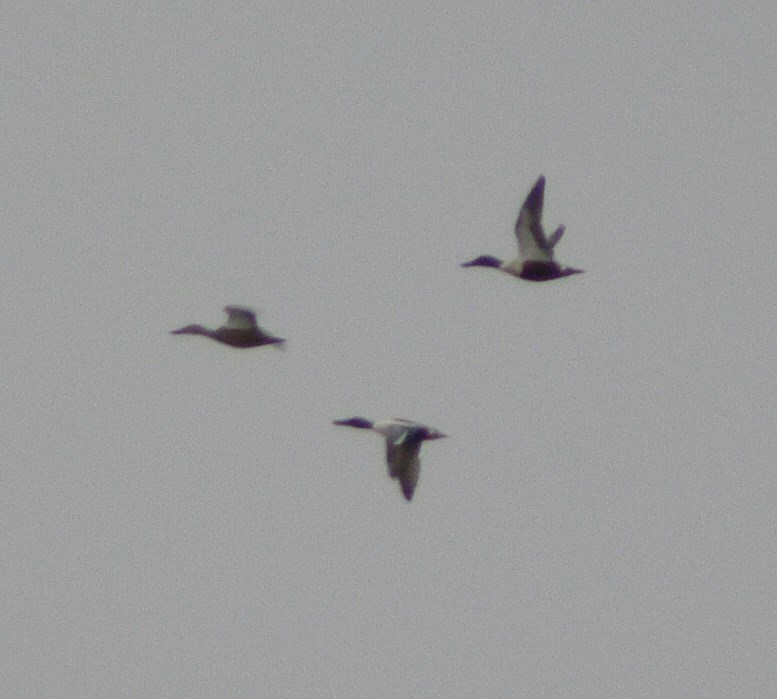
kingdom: Animalia
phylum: Chordata
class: Aves
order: Anseriformes
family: Anatidae
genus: Spatula
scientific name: Spatula clypeata
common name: Northern shoveler
